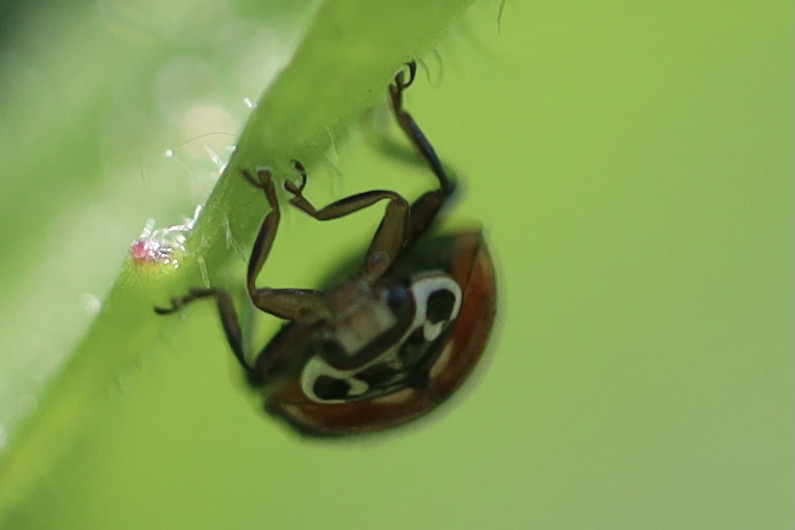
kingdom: Animalia
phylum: Arthropoda
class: Insecta
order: Coleoptera
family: Coccinellidae
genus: Cycloneda
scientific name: Cycloneda polita
